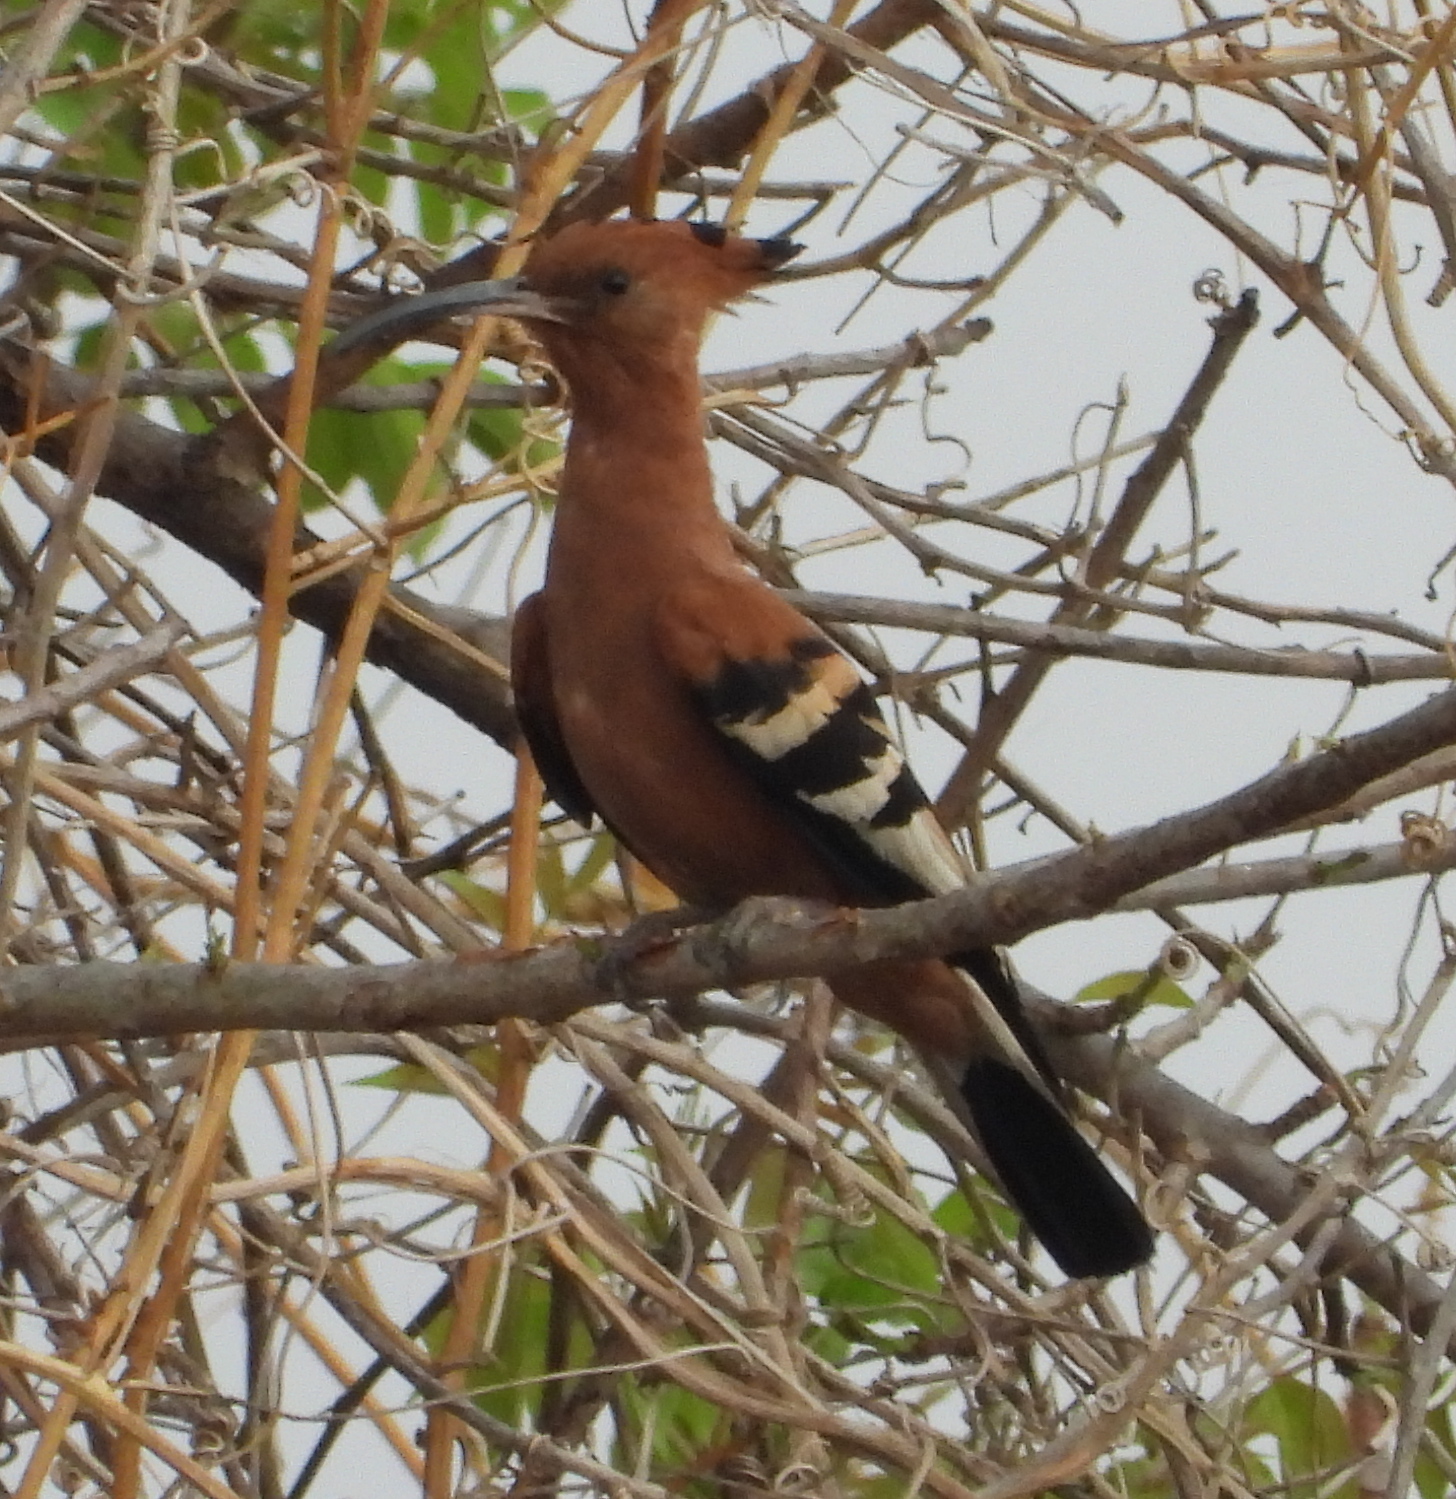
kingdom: Animalia
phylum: Chordata
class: Aves
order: Bucerotiformes
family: Upupidae
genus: Upupa
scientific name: Upupa epops
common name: Eurasian hoopoe
